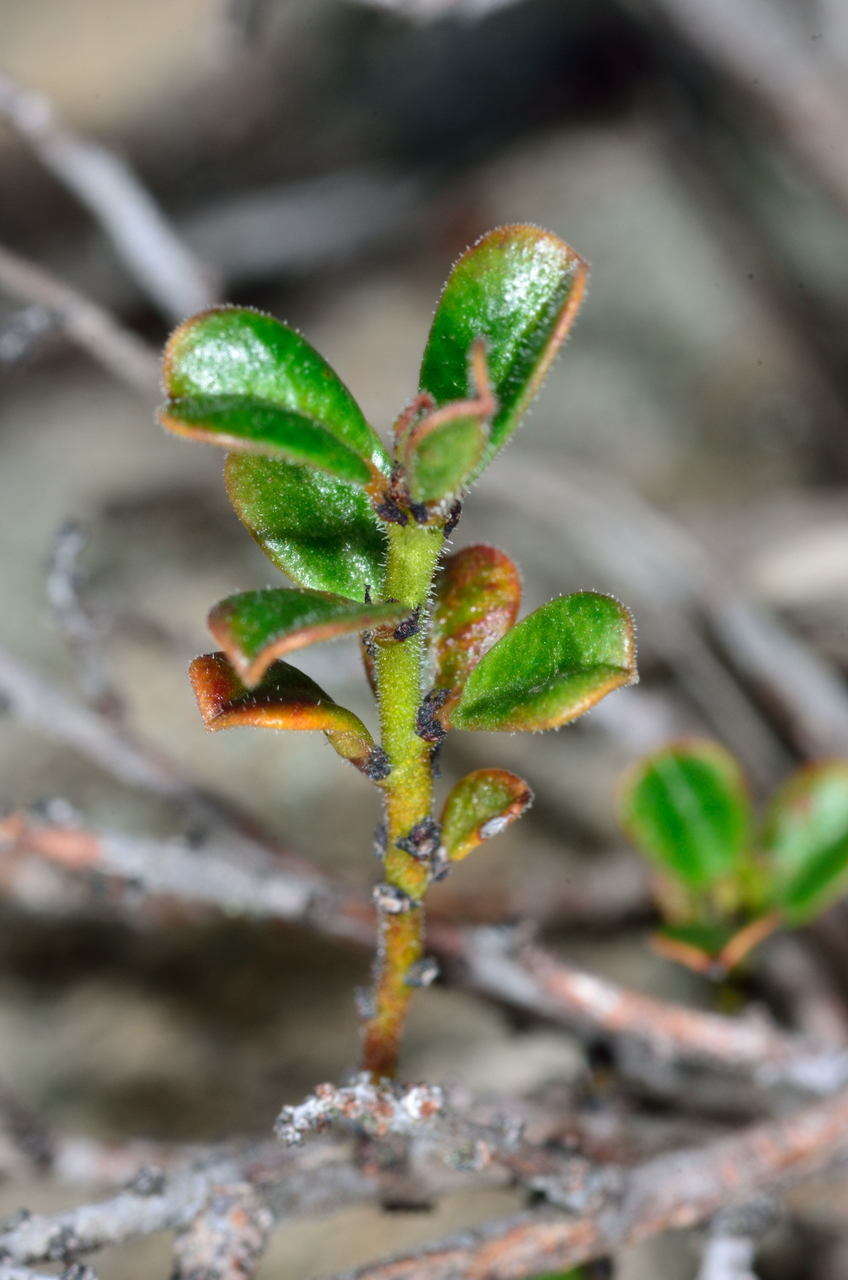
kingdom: Plantae
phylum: Tracheophyta
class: Magnoliopsida
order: Malpighiales
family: Phyllanthaceae
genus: Phyllanthus
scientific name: Phyllanthus hirtellus
